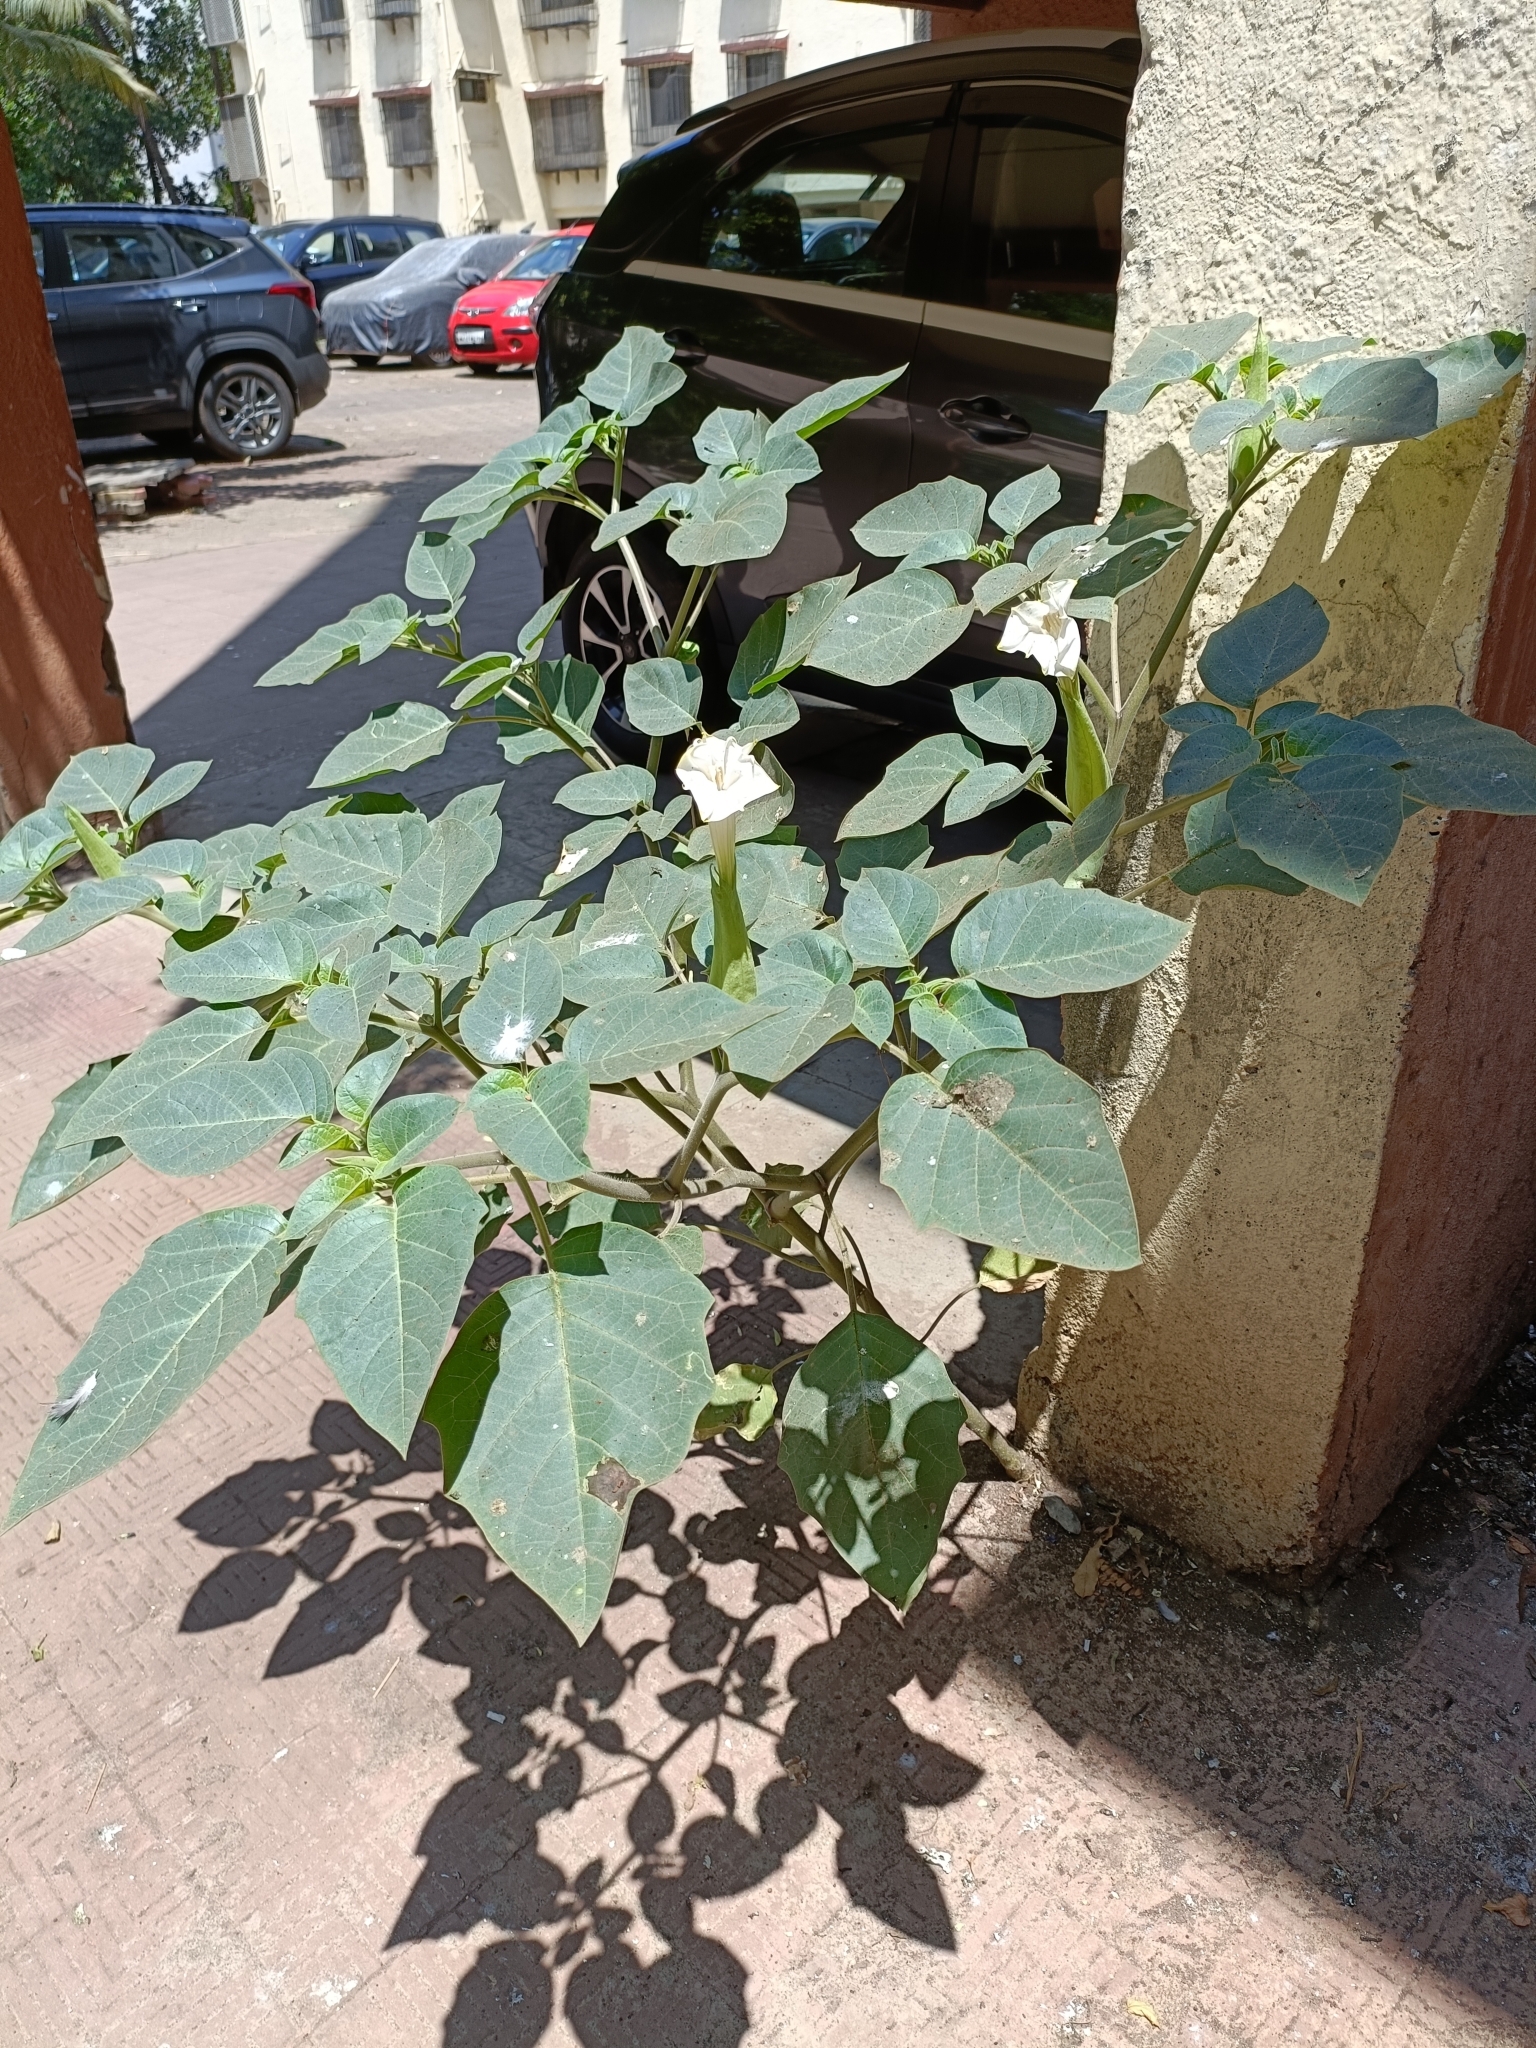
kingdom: Plantae
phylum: Tracheophyta
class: Magnoliopsida
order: Solanales
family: Solanaceae
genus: Datura
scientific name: Datura innoxia
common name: Downy thorn-apple
